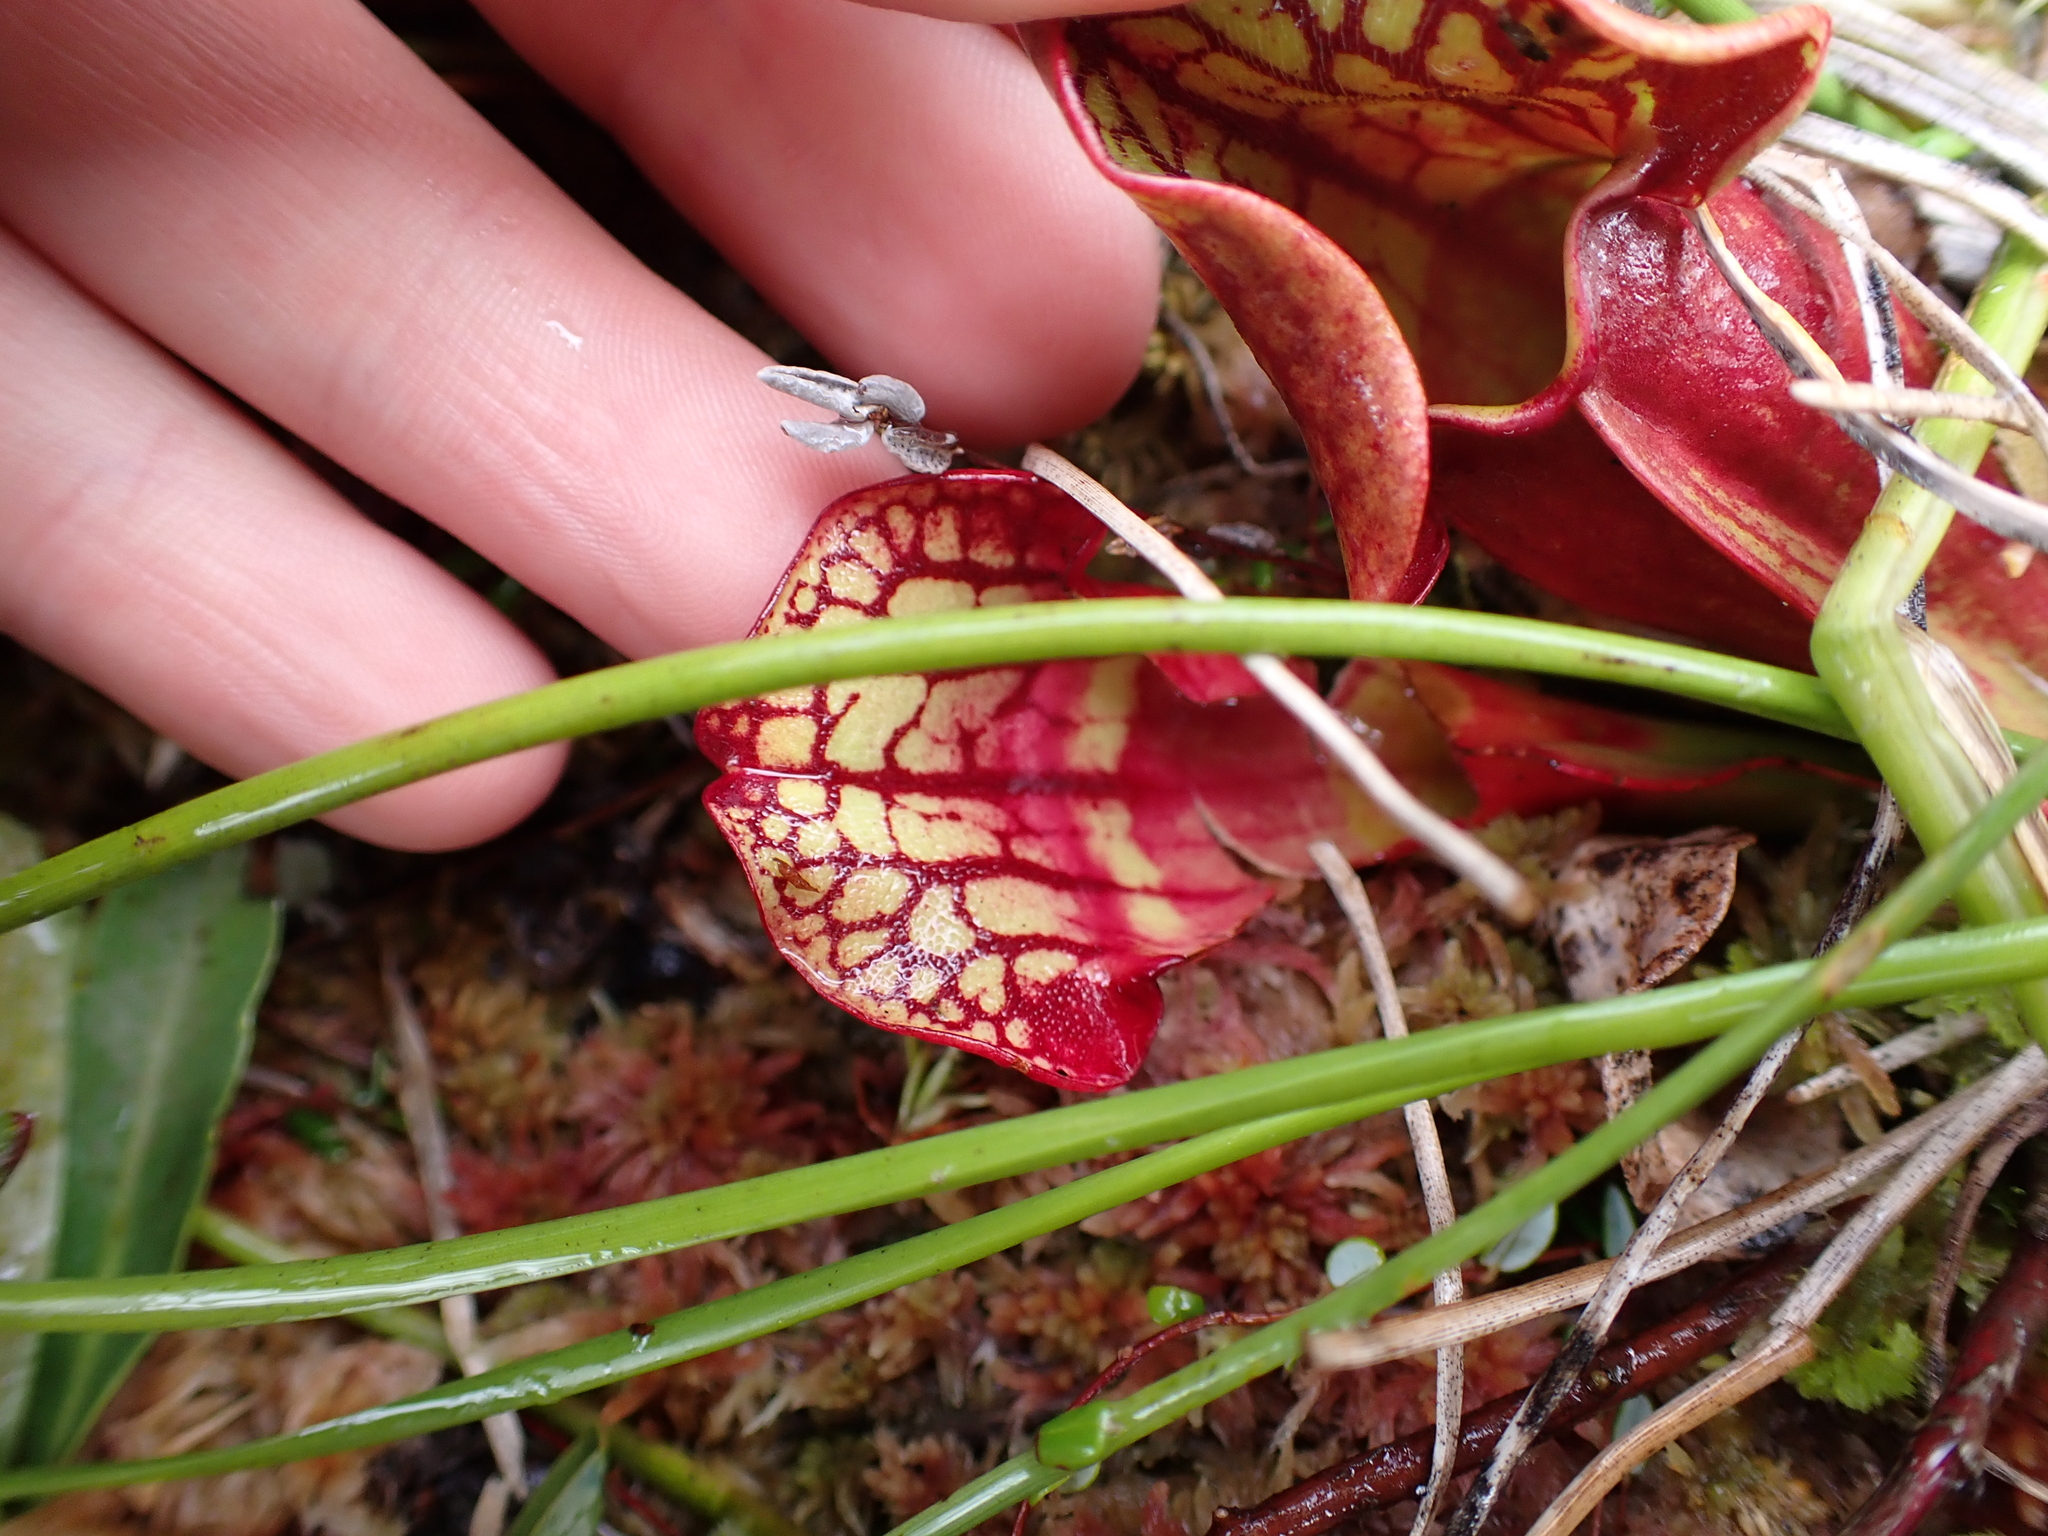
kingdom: Plantae
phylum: Tracheophyta
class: Magnoliopsida
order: Ericales
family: Sarraceniaceae
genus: Sarracenia
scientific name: Sarracenia purpurea
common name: Pitcherplant
